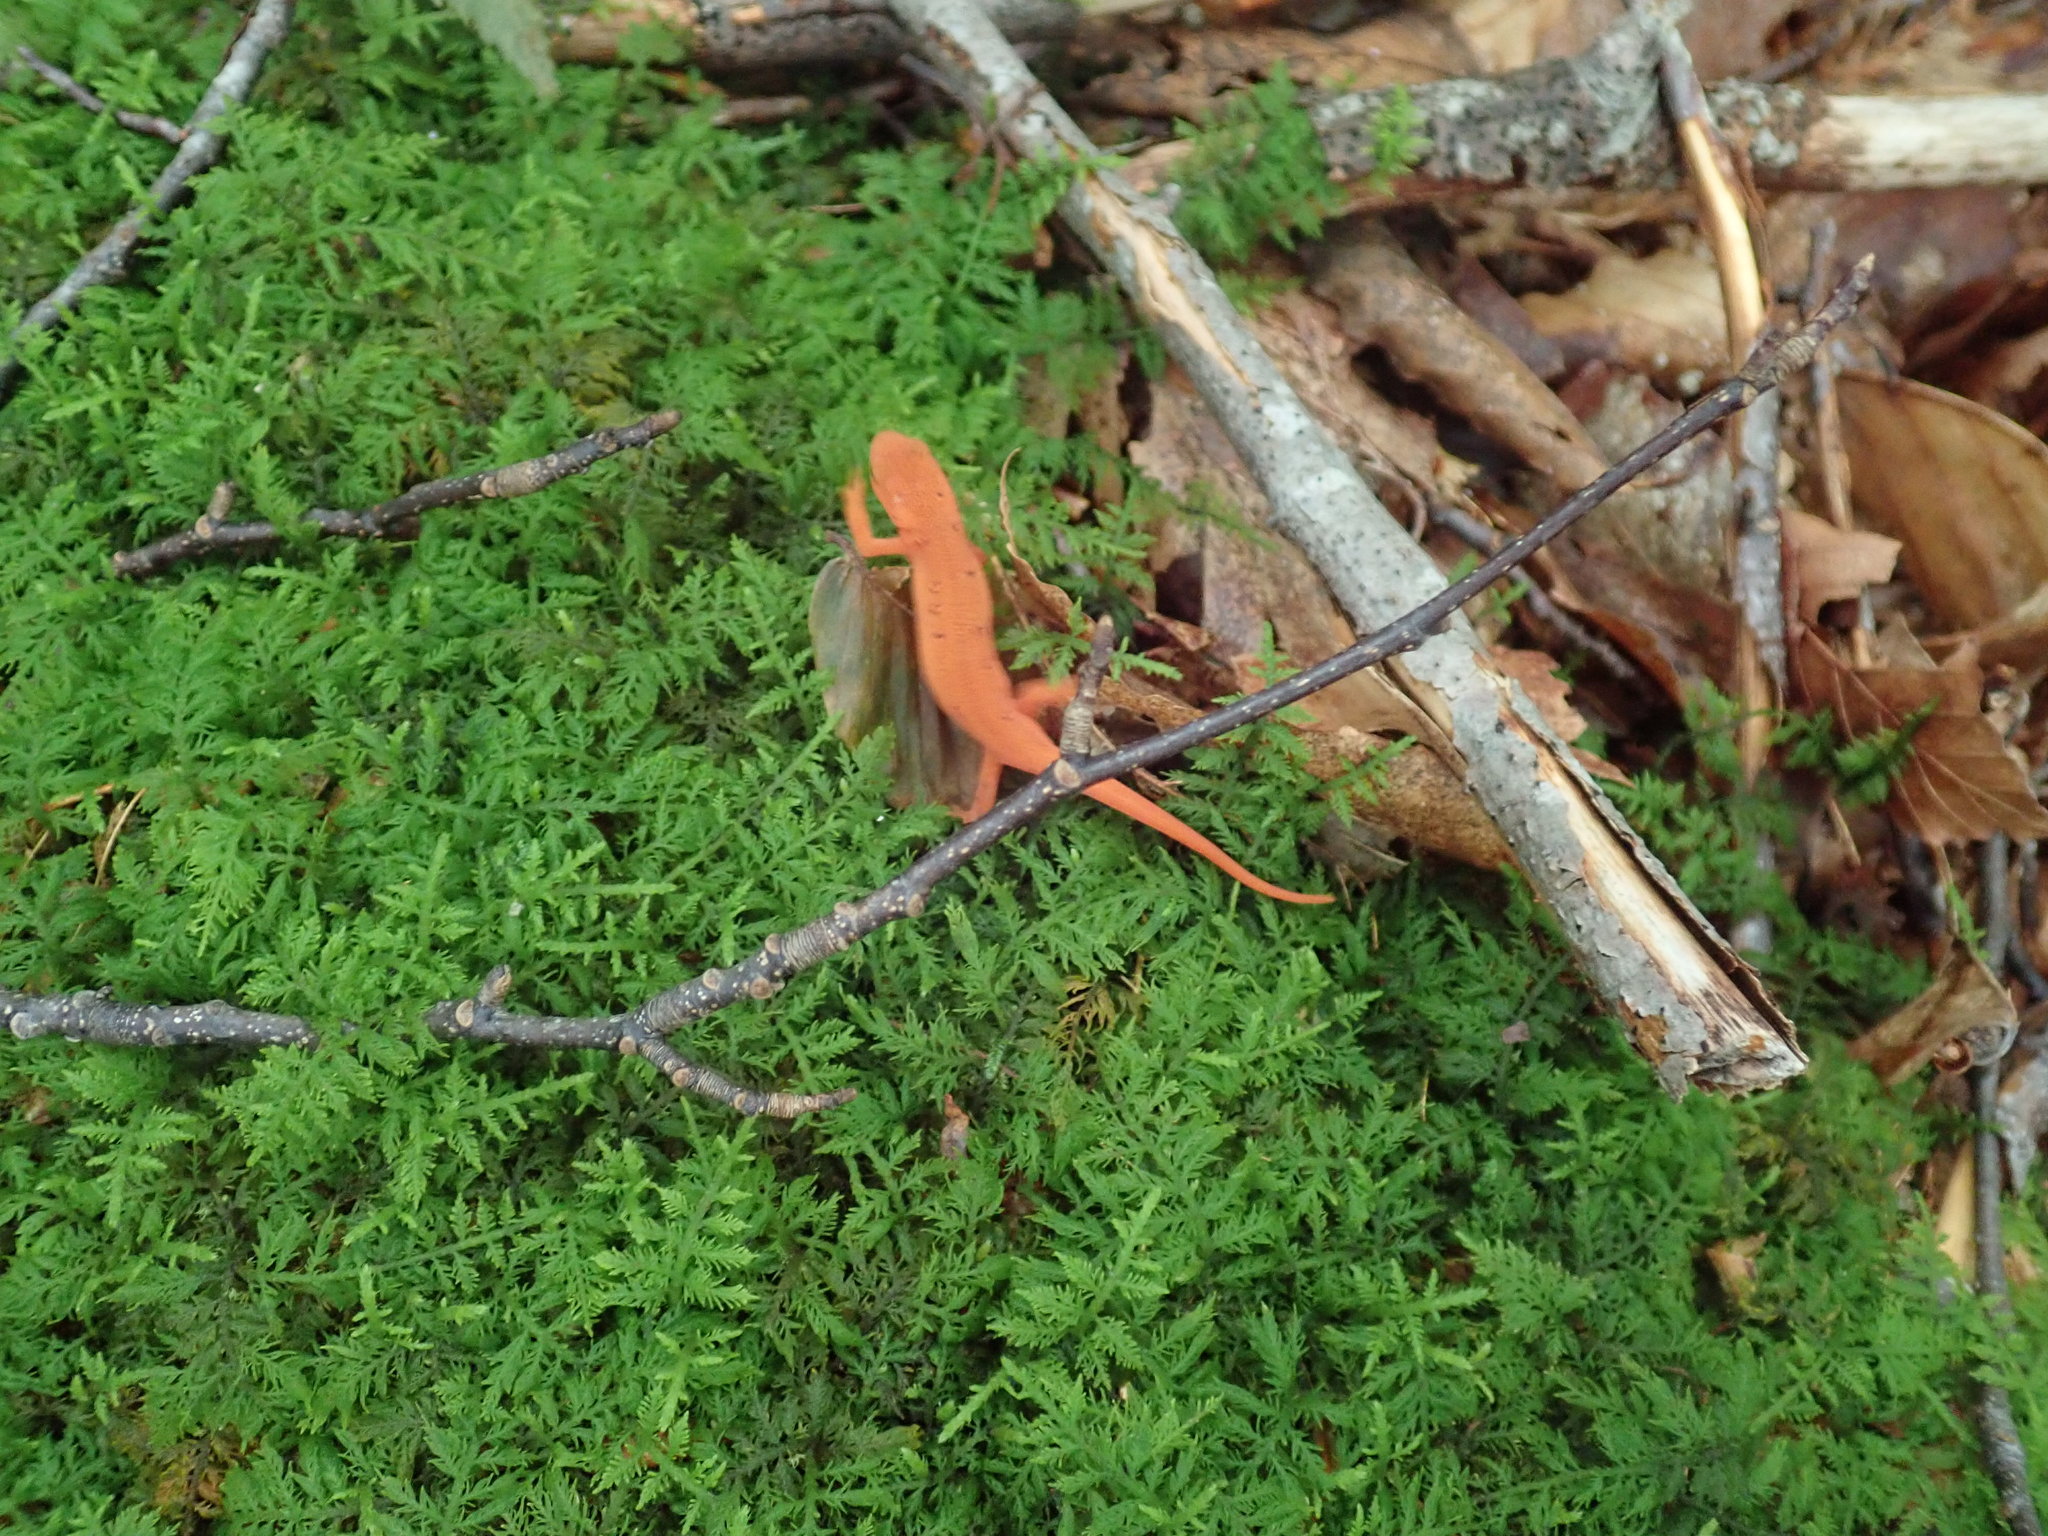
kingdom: Animalia
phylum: Chordata
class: Amphibia
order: Caudata
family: Salamandridae
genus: Notophthalmus
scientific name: Notophthalmus viridescens
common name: Eastern newt
